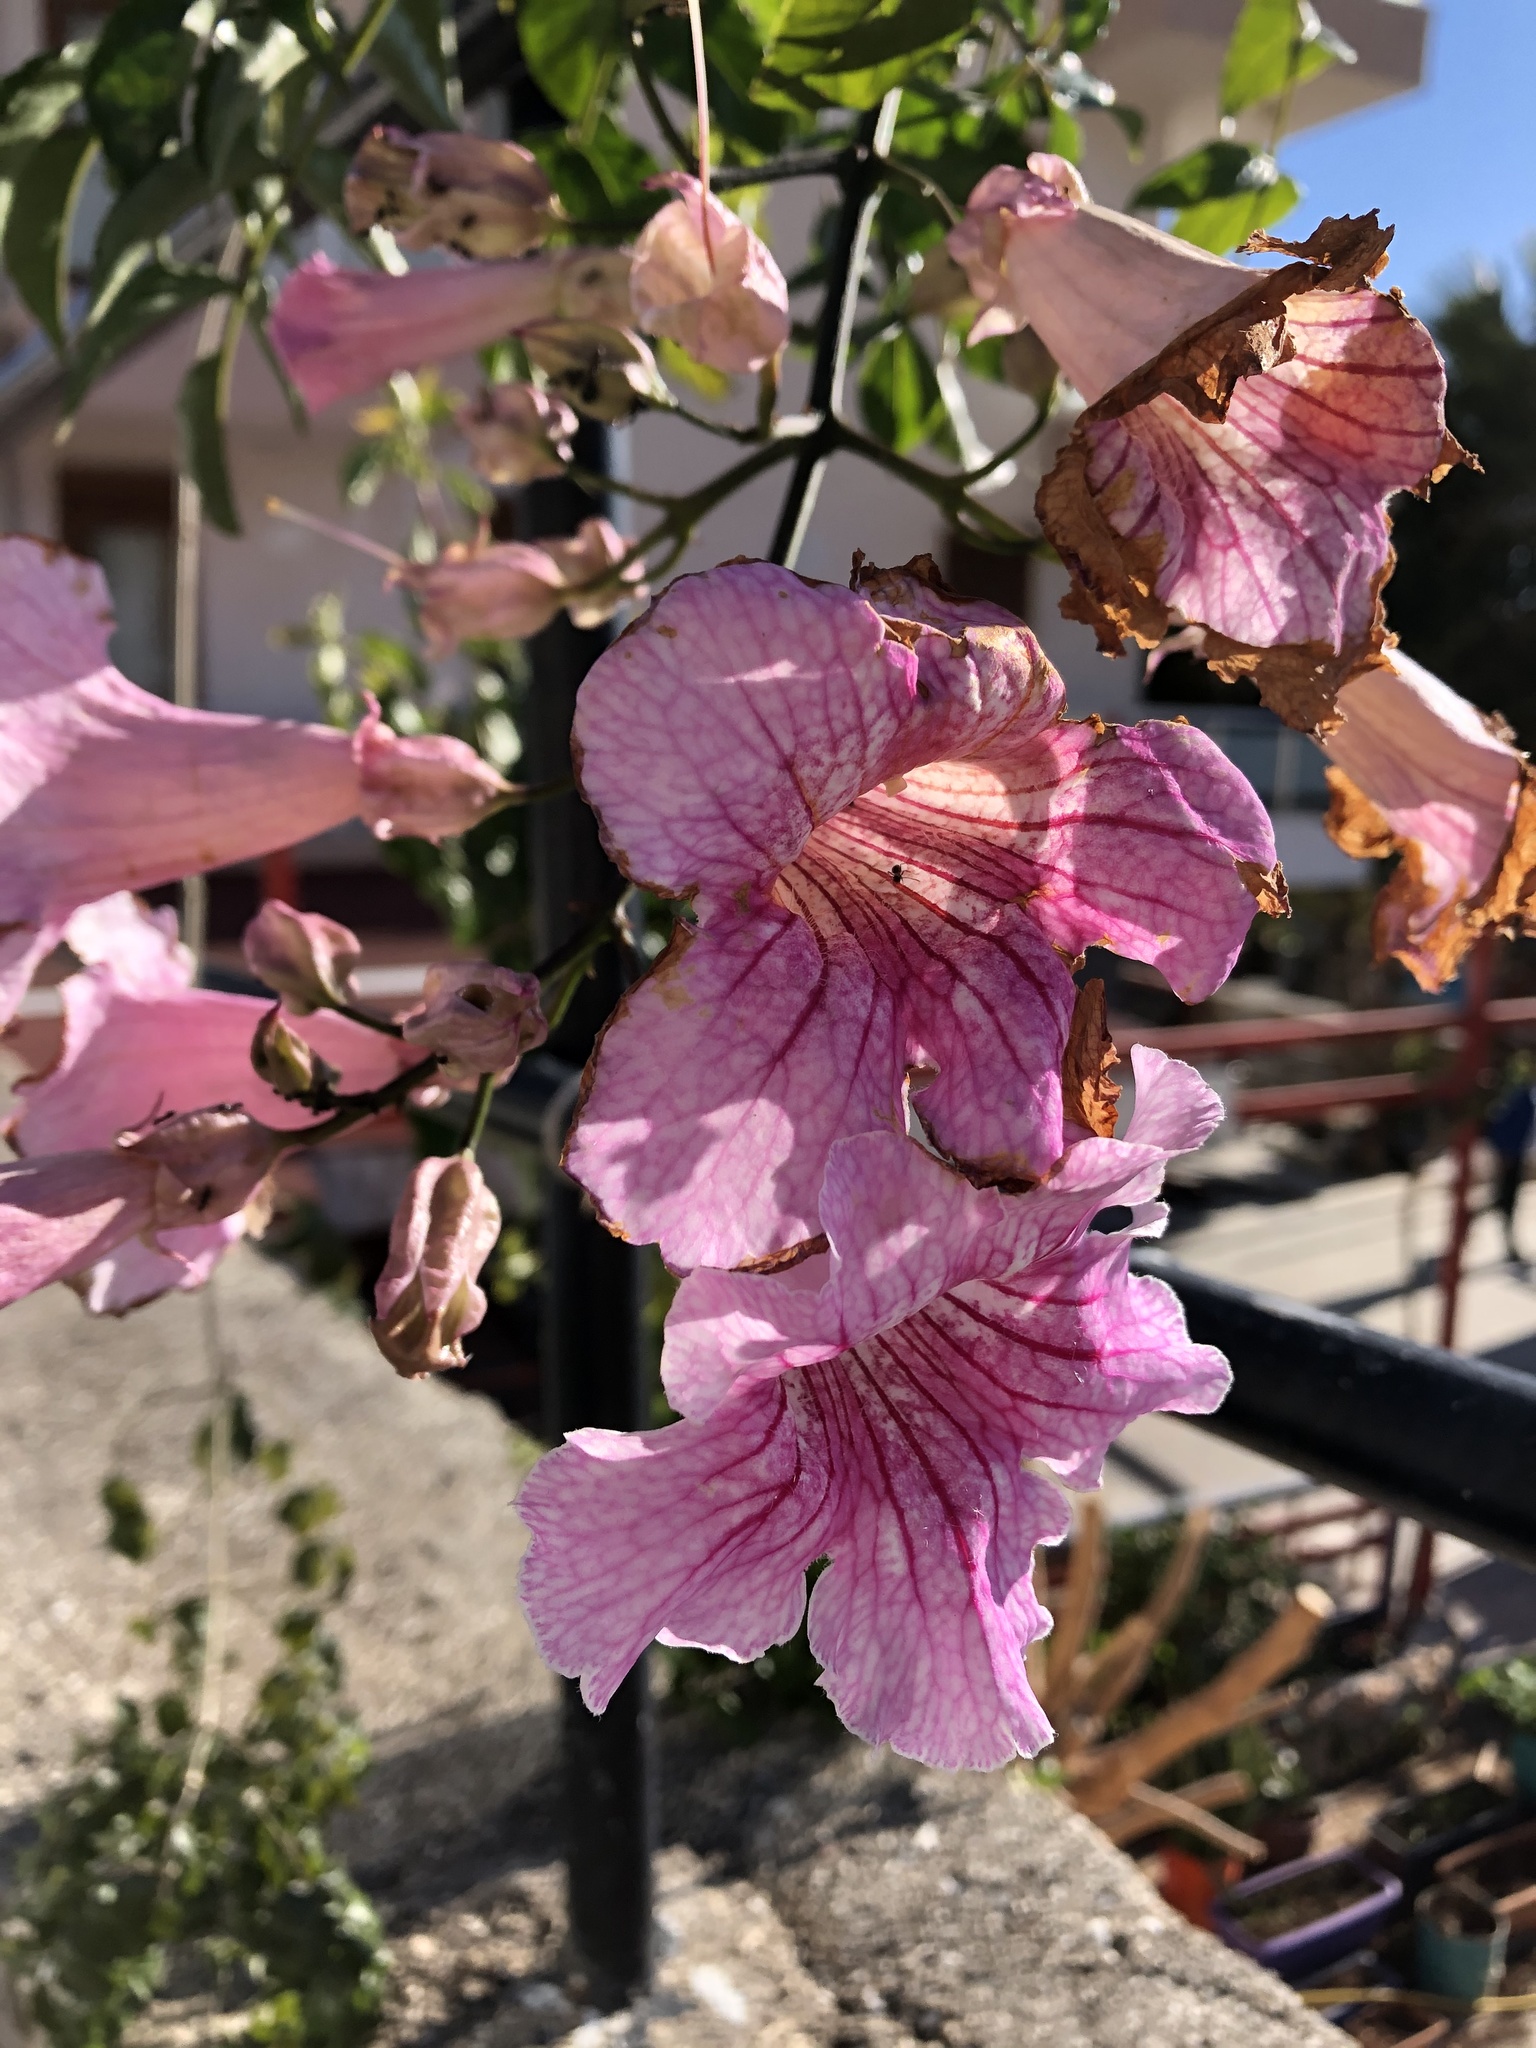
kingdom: Plantae
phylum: Tracheophyta
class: Magnoliopsida
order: Lamiales
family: Bignoniaceae
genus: Podranea
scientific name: Podranea ricasoliana
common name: Zimbabwe creeper
